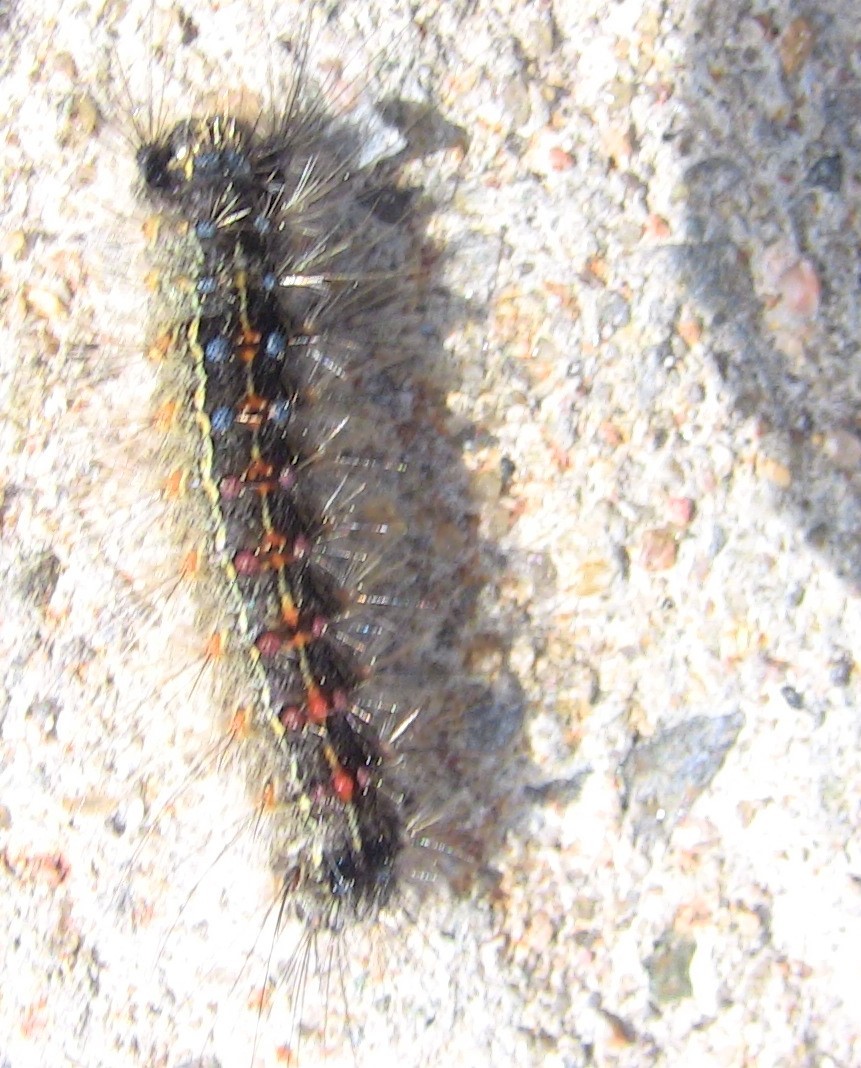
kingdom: Animalia
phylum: Arthropoda
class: Insecta
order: Lepidoptera
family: Erebidae
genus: Lymantria
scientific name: Lymantria dispar
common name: Gypsy moth
